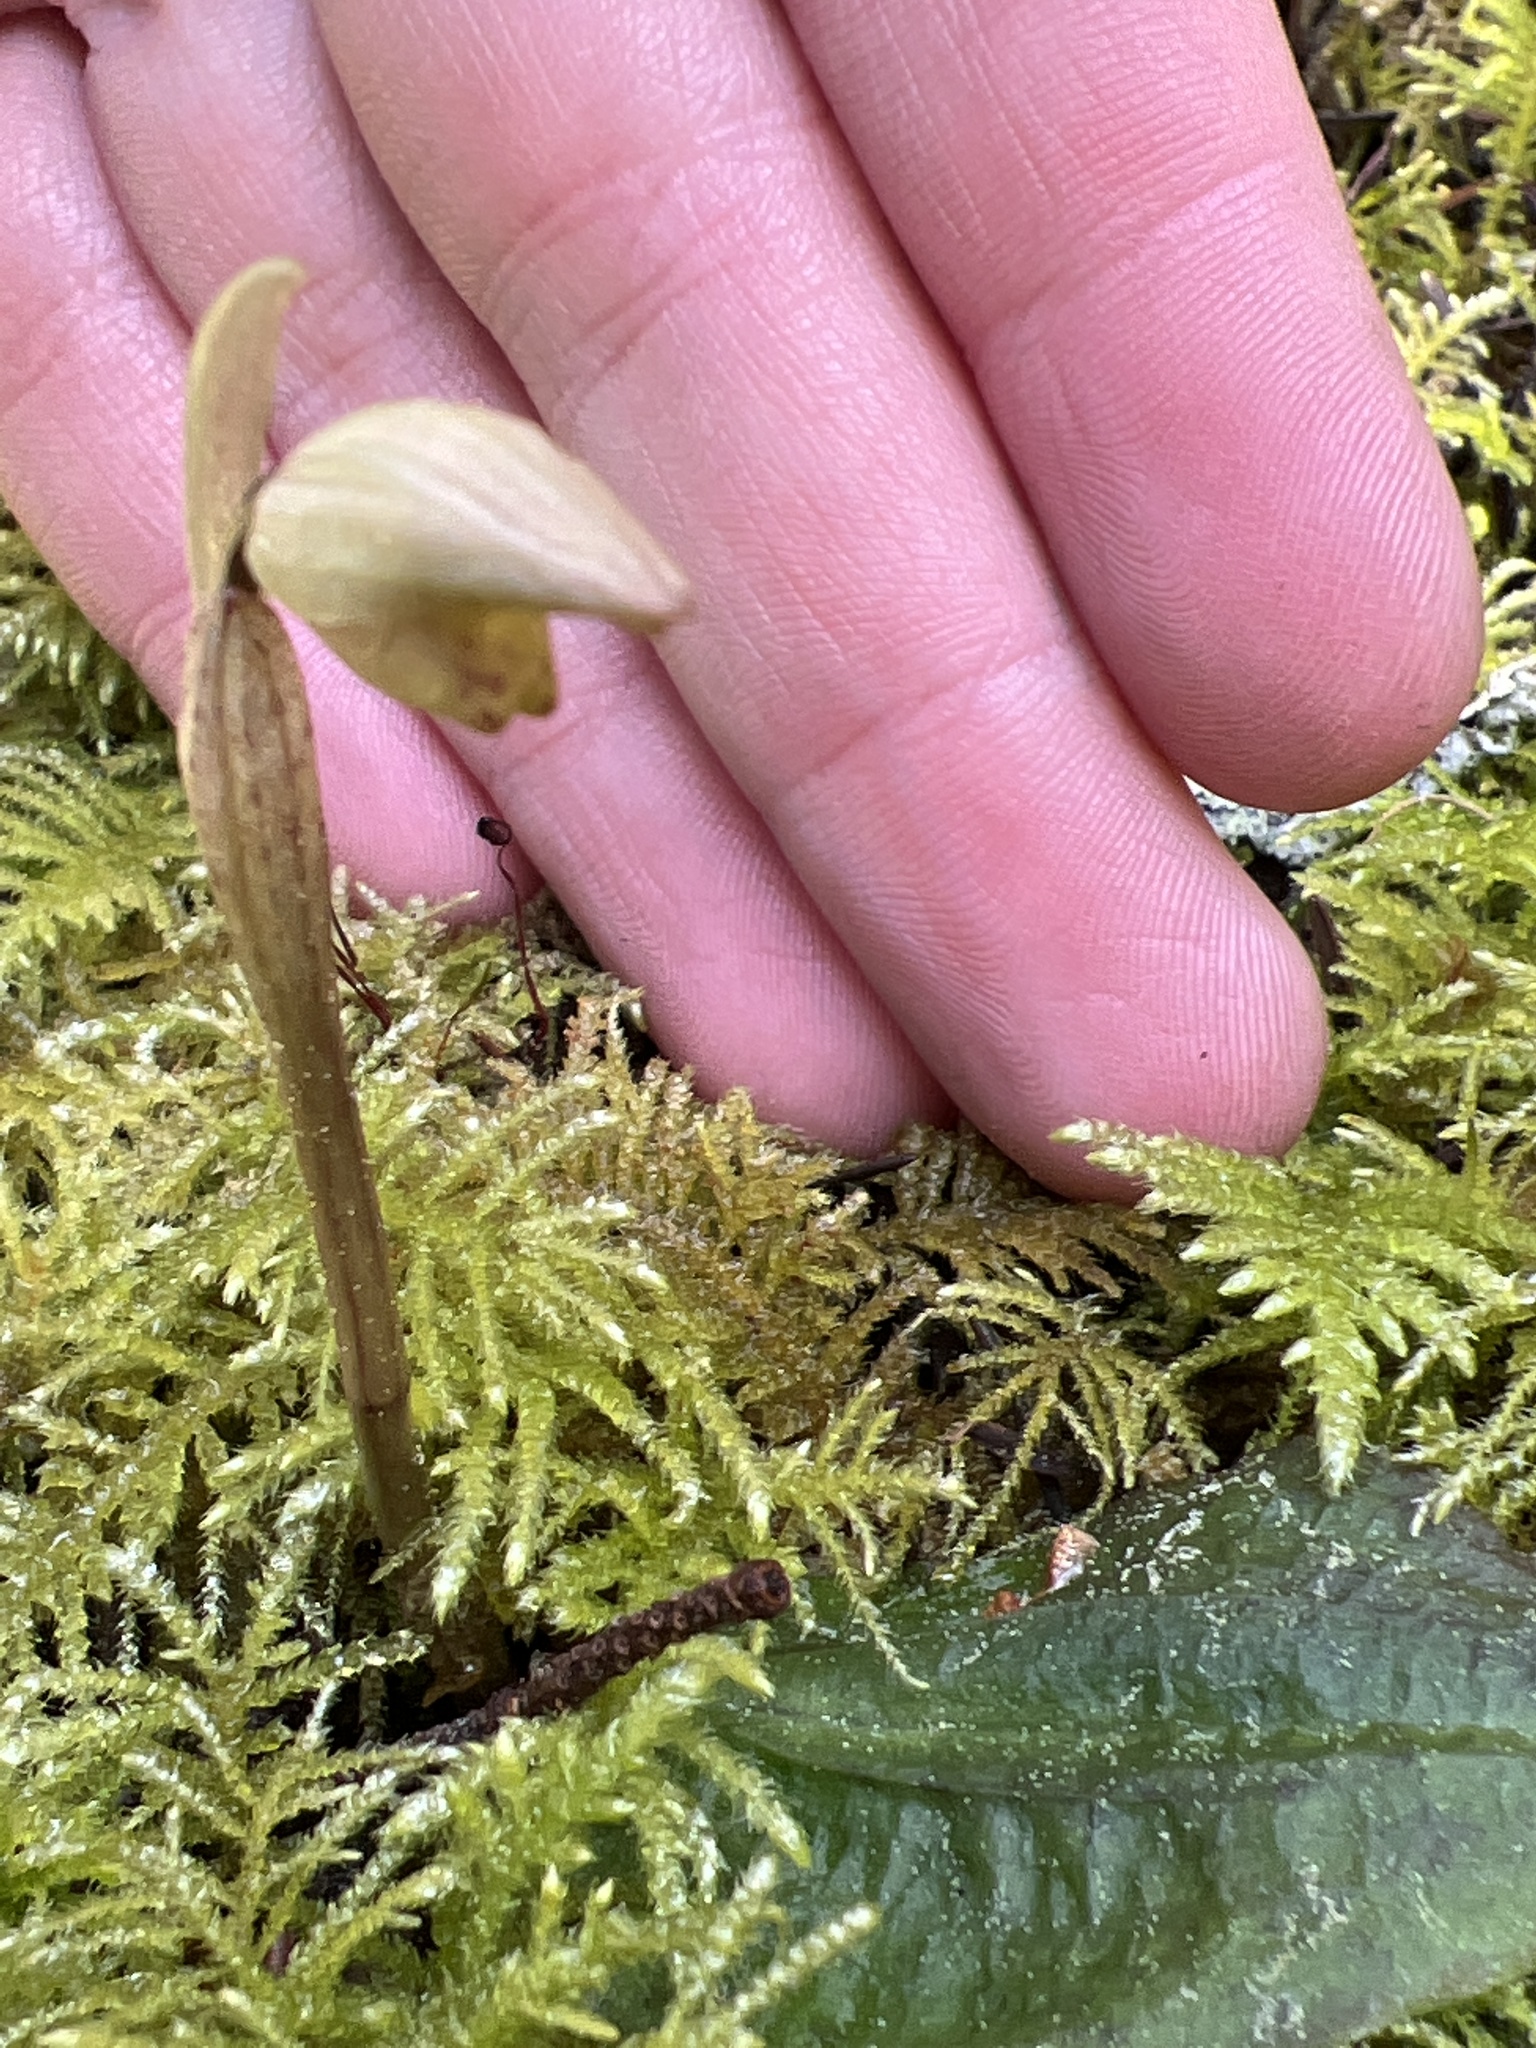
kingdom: Plantae
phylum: Tracheophyta
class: Liliopsida
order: Asparagales
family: Orchidaceae
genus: Calypso
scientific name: Calypso bulbosa
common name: Calypso
